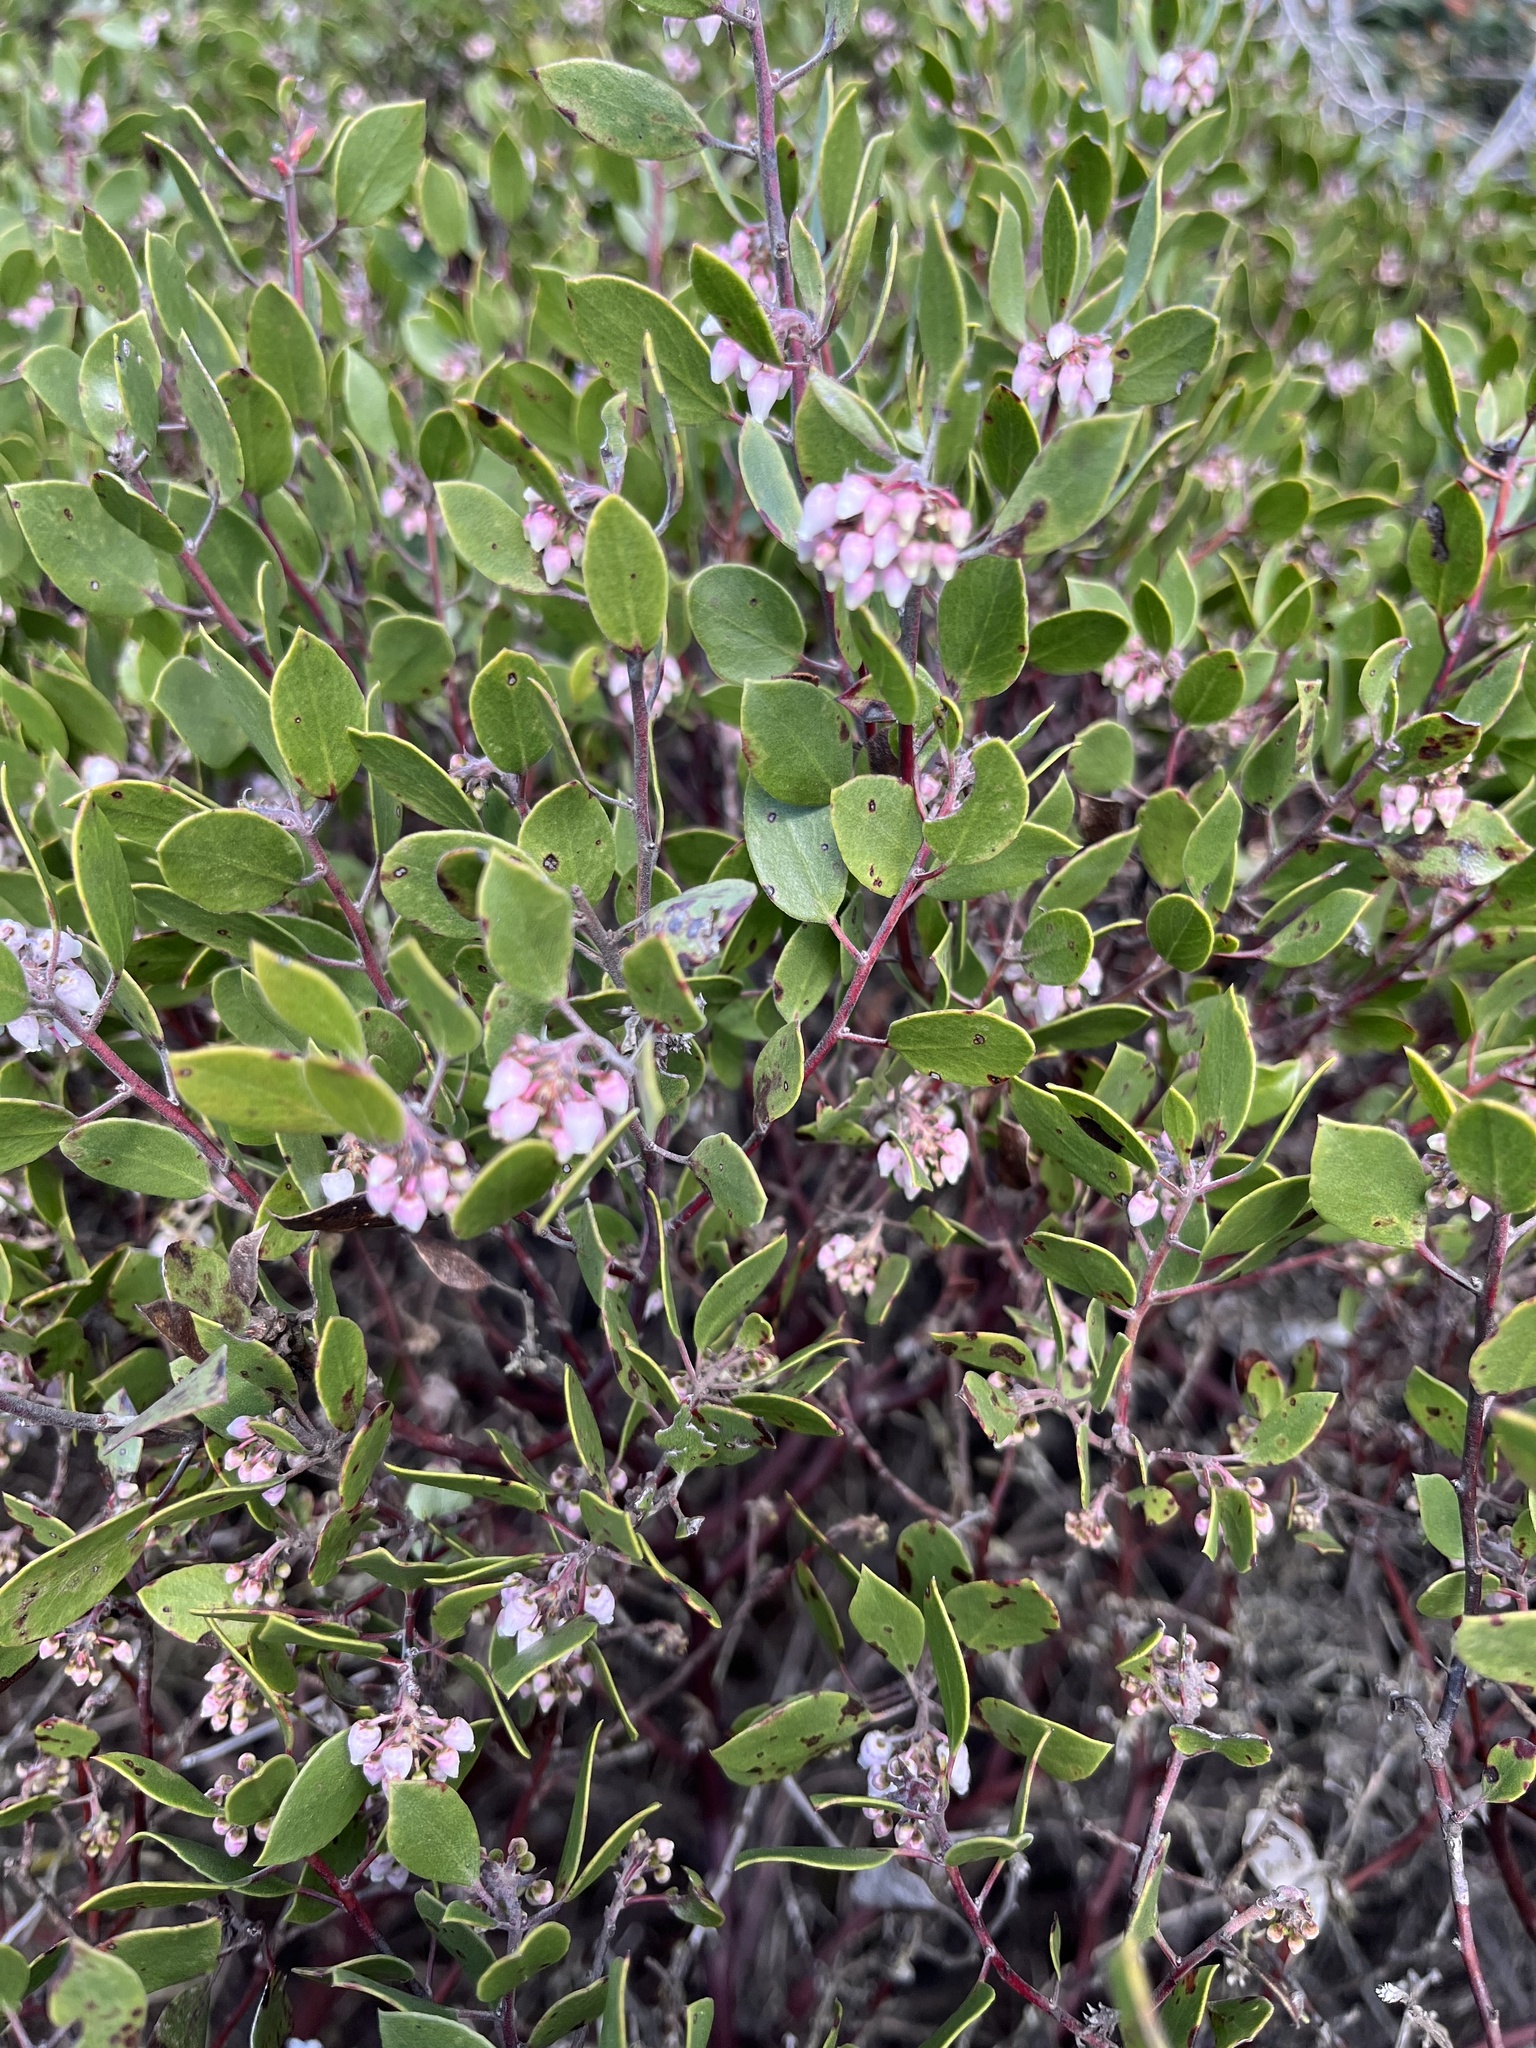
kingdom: Plantae
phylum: Tracheophyta
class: Magnoliopsida
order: Ericales
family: Ericaceae
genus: Arctostaphylos
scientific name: Arctostaphylos hookeri
